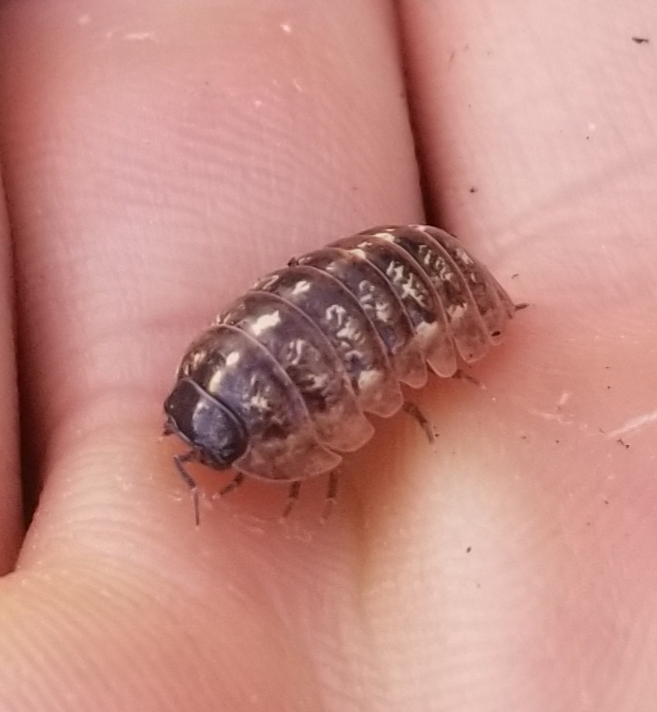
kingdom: Animalia
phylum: Arthropoda
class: Malacostraca
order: Isopoda
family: Armadillidiidae
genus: Armadillidium
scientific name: Armadillidium vulgare
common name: Common pill woodlouse
